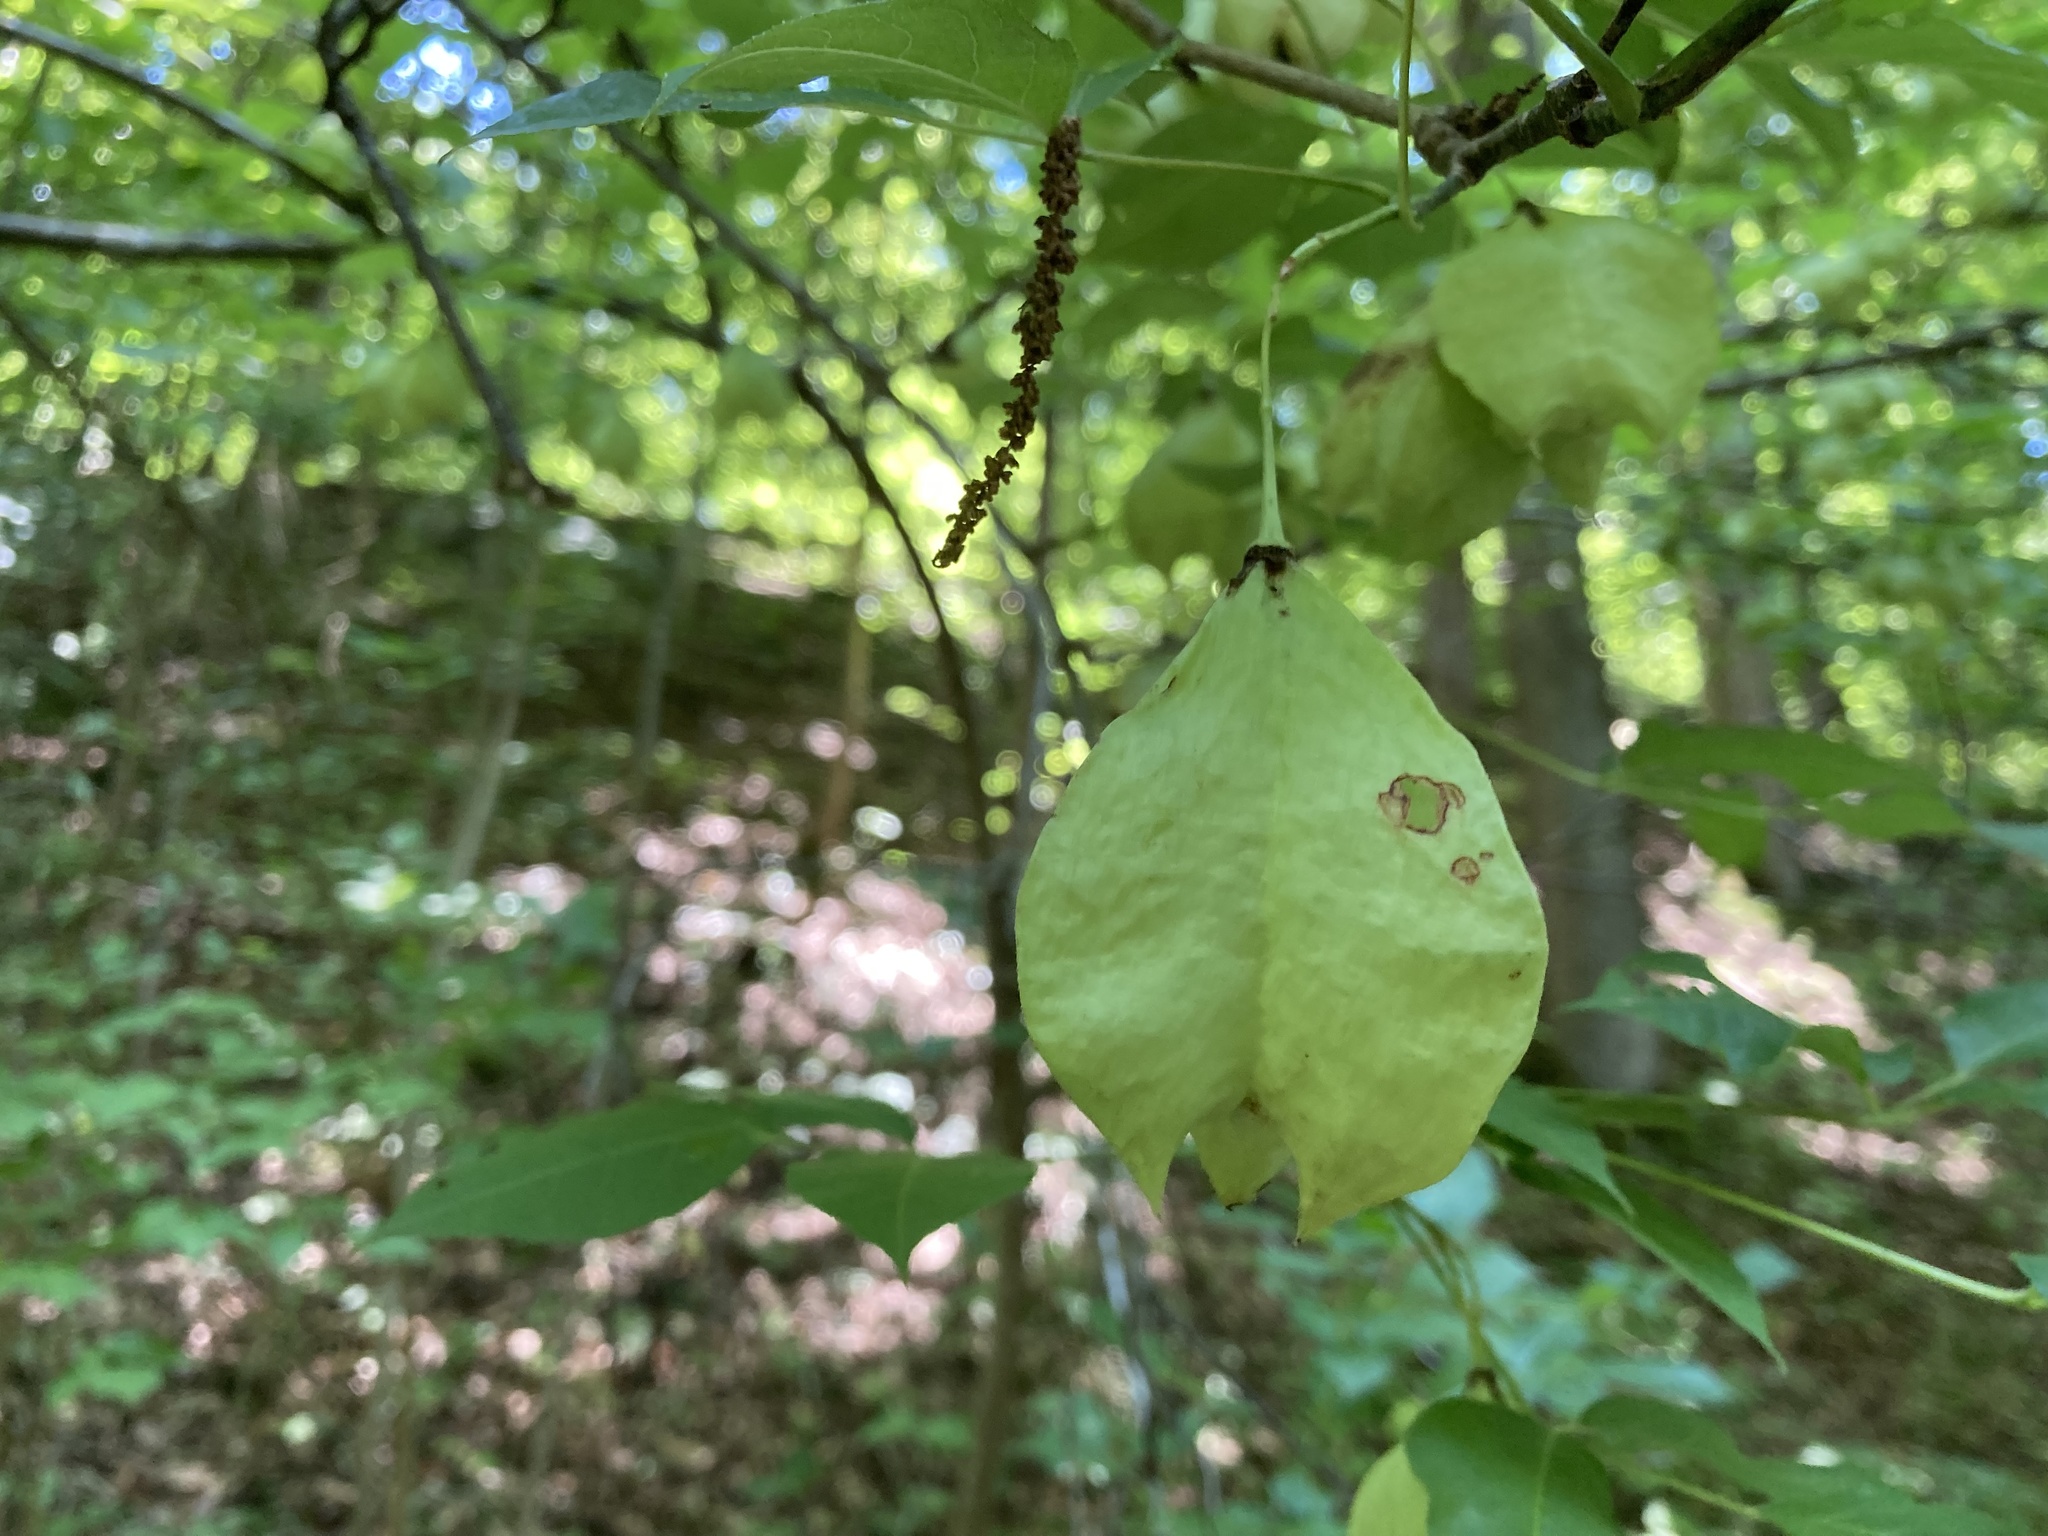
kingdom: Plantae
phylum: Tracheophyta
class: Magnoliopsida
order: Crossosomatales
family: Staphyleaceae
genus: Staphylea
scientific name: Staphylea trifolia
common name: American bladdernut
